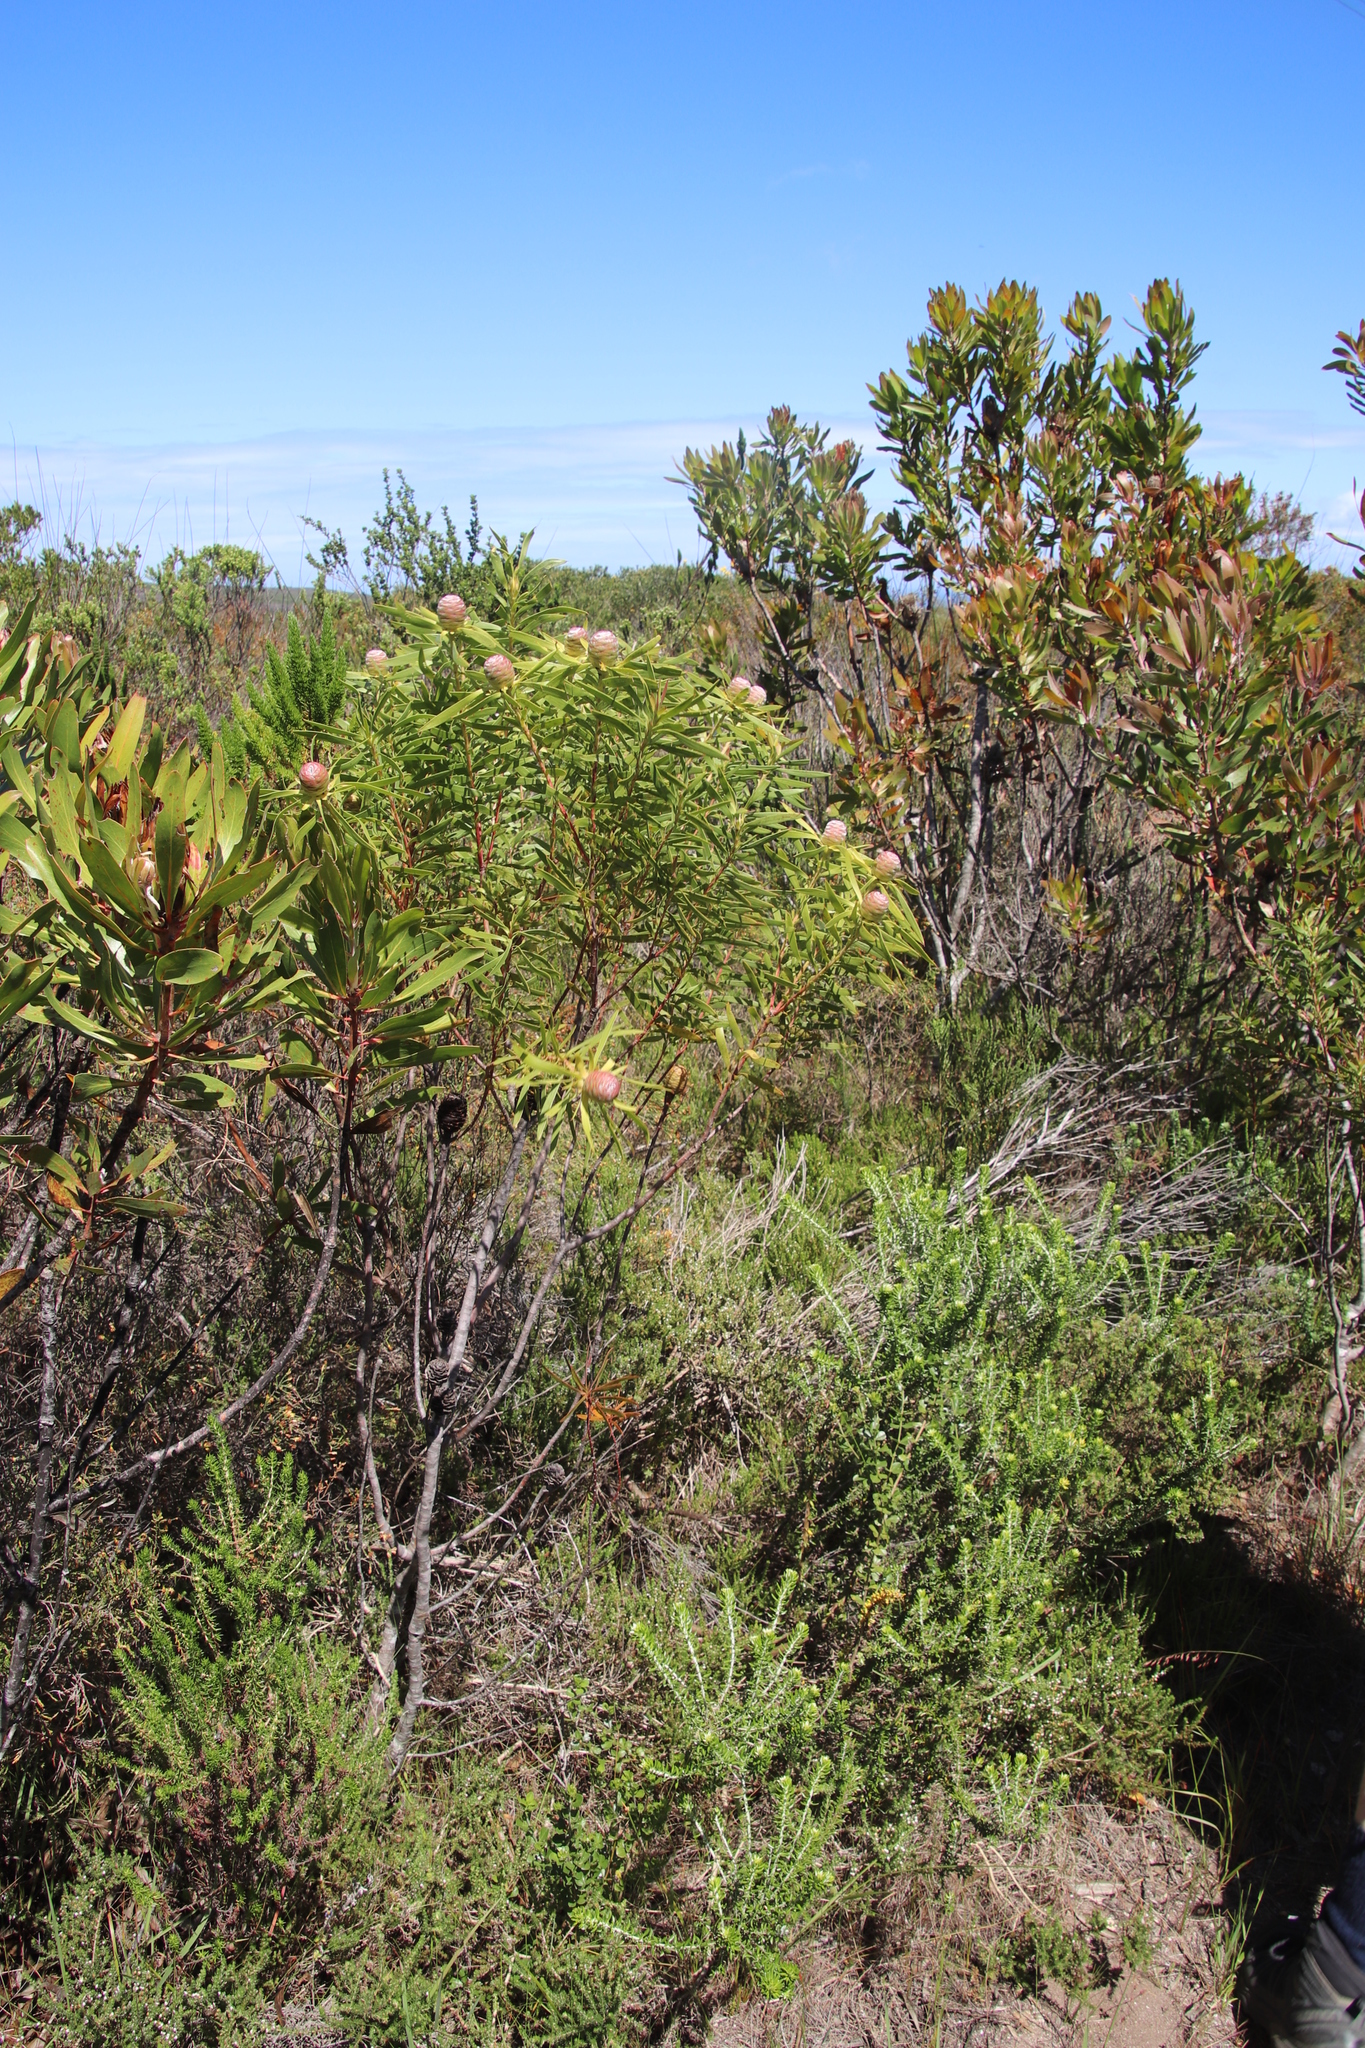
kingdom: Plantae
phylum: Tracheophyta
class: Magnoliopsida
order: Proteales
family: Proteaceae
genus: Leucadendron
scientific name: Leucadendron coniferum
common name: Dune conebush
